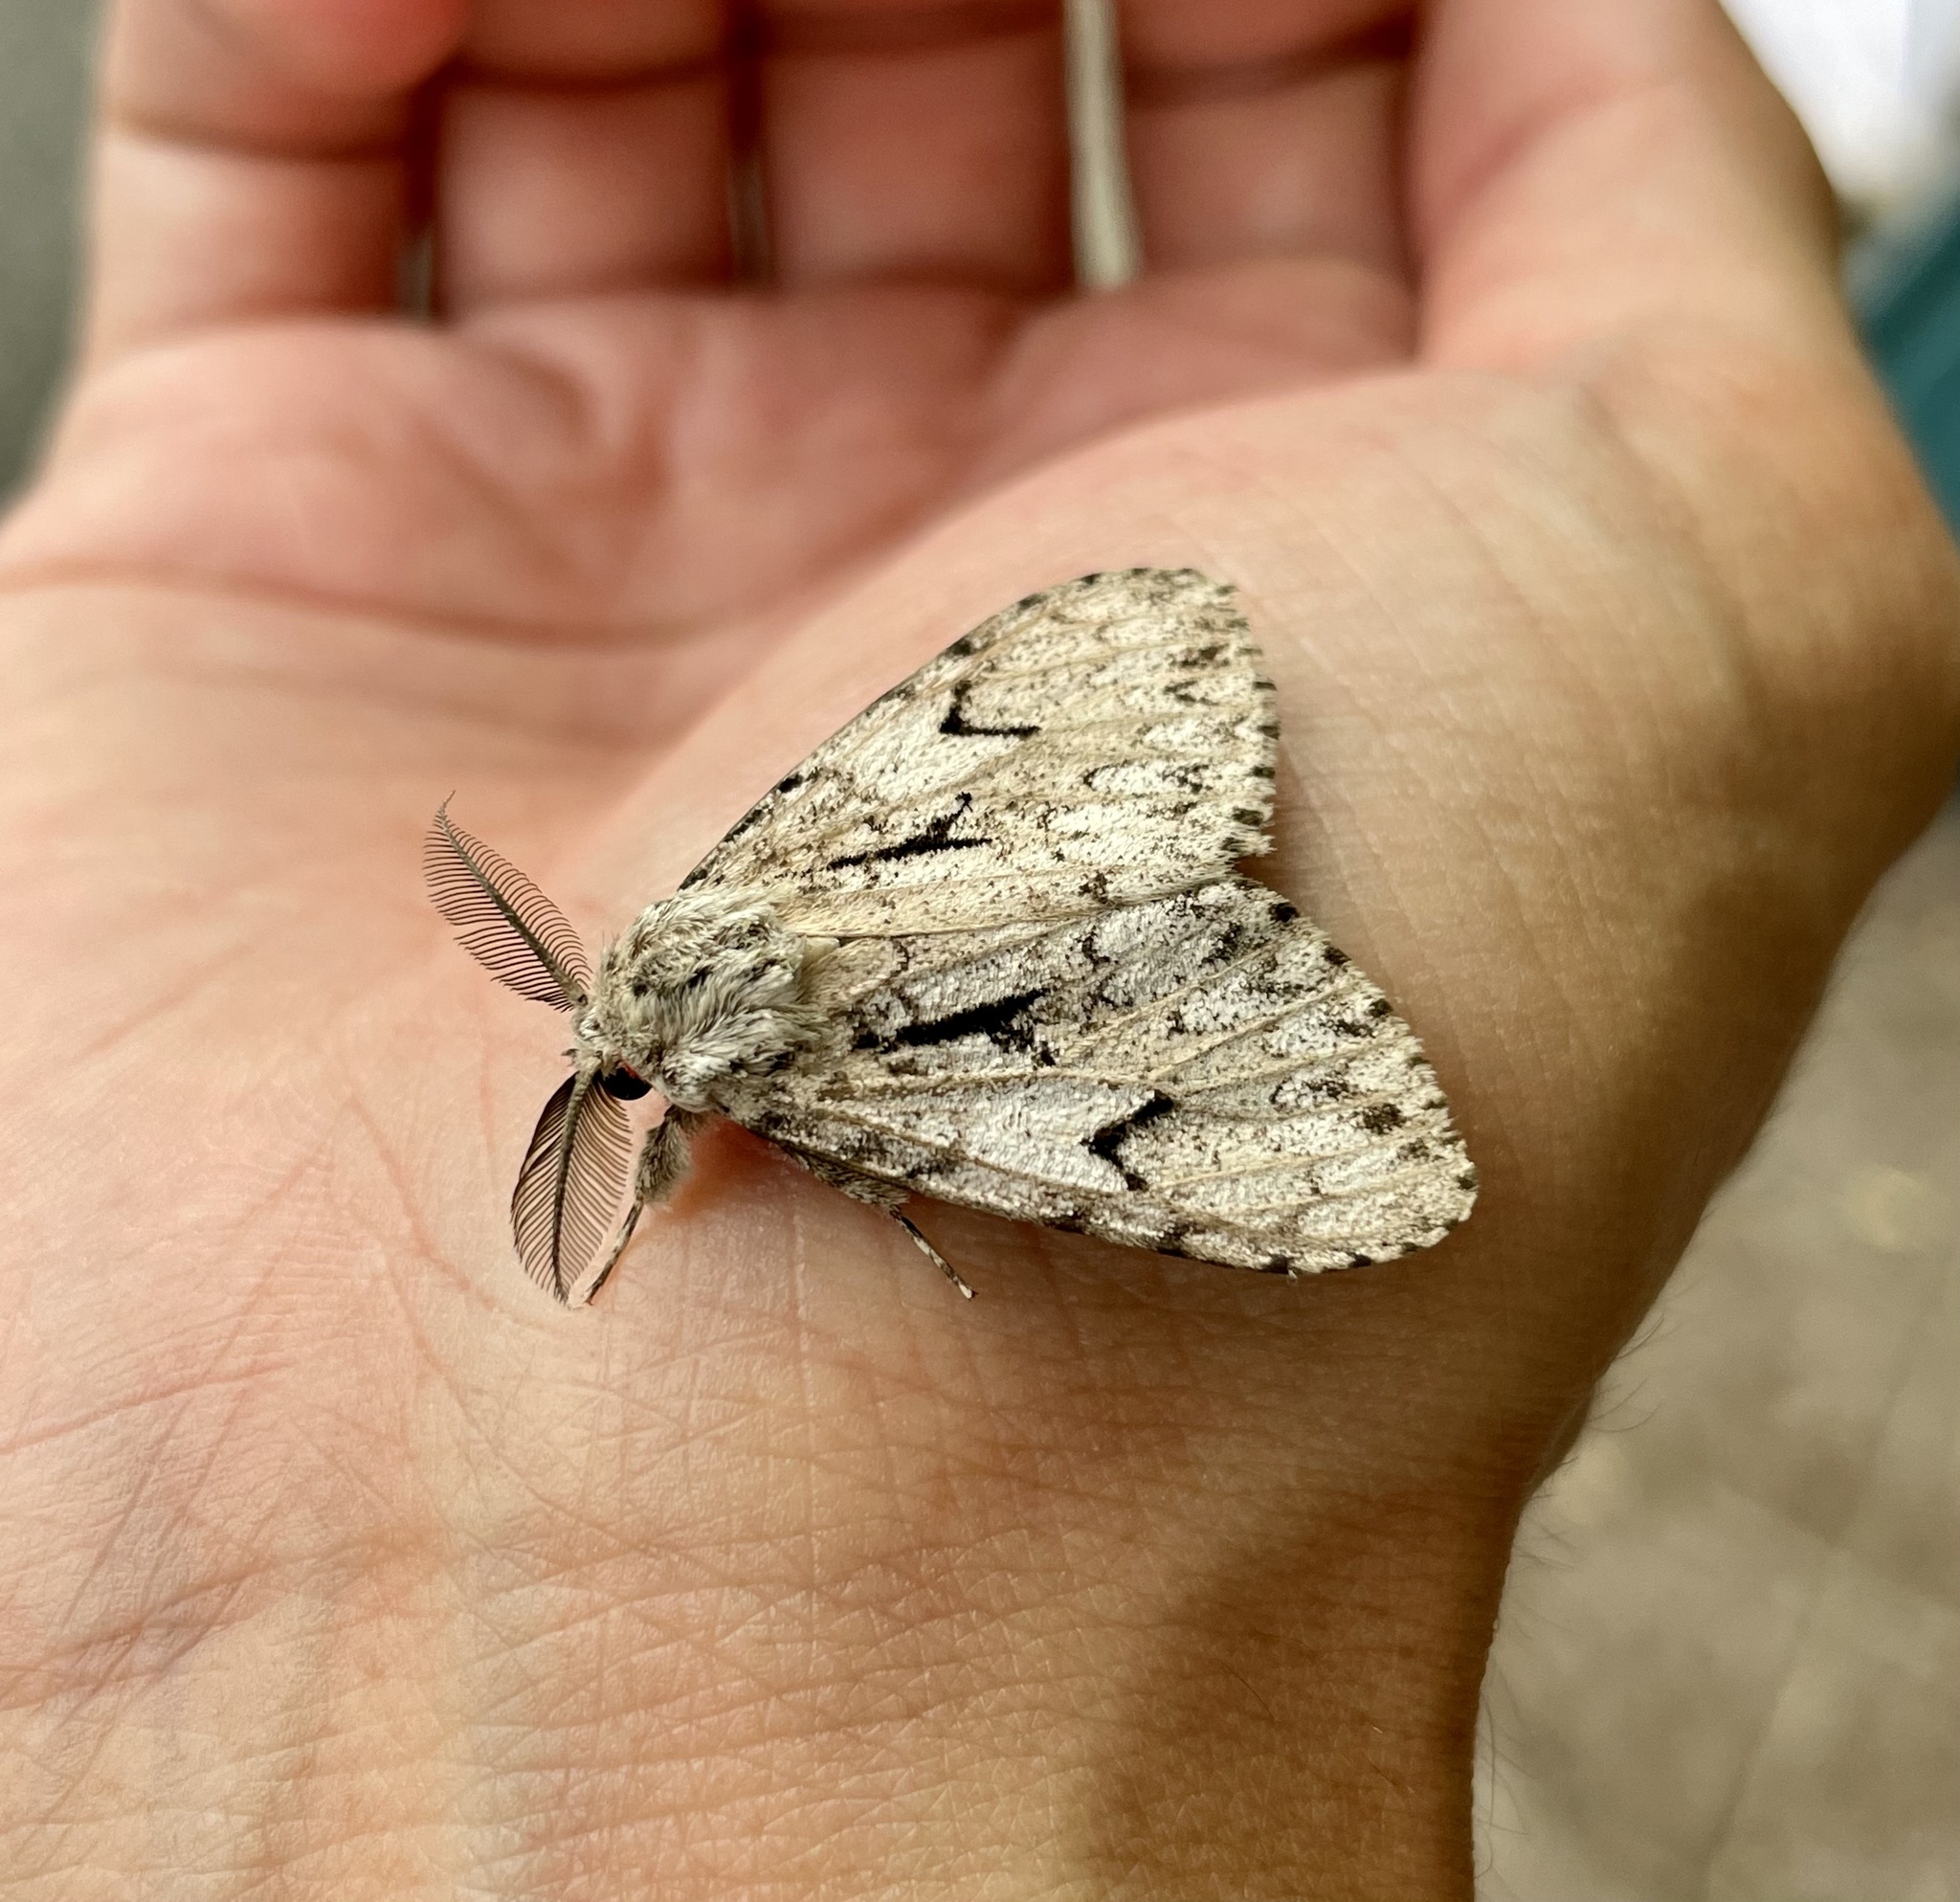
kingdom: Animalia
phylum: Arthropoda
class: Insecta
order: Lepidoptera
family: Erebidae
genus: Lymantria
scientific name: Lymantria fumida
